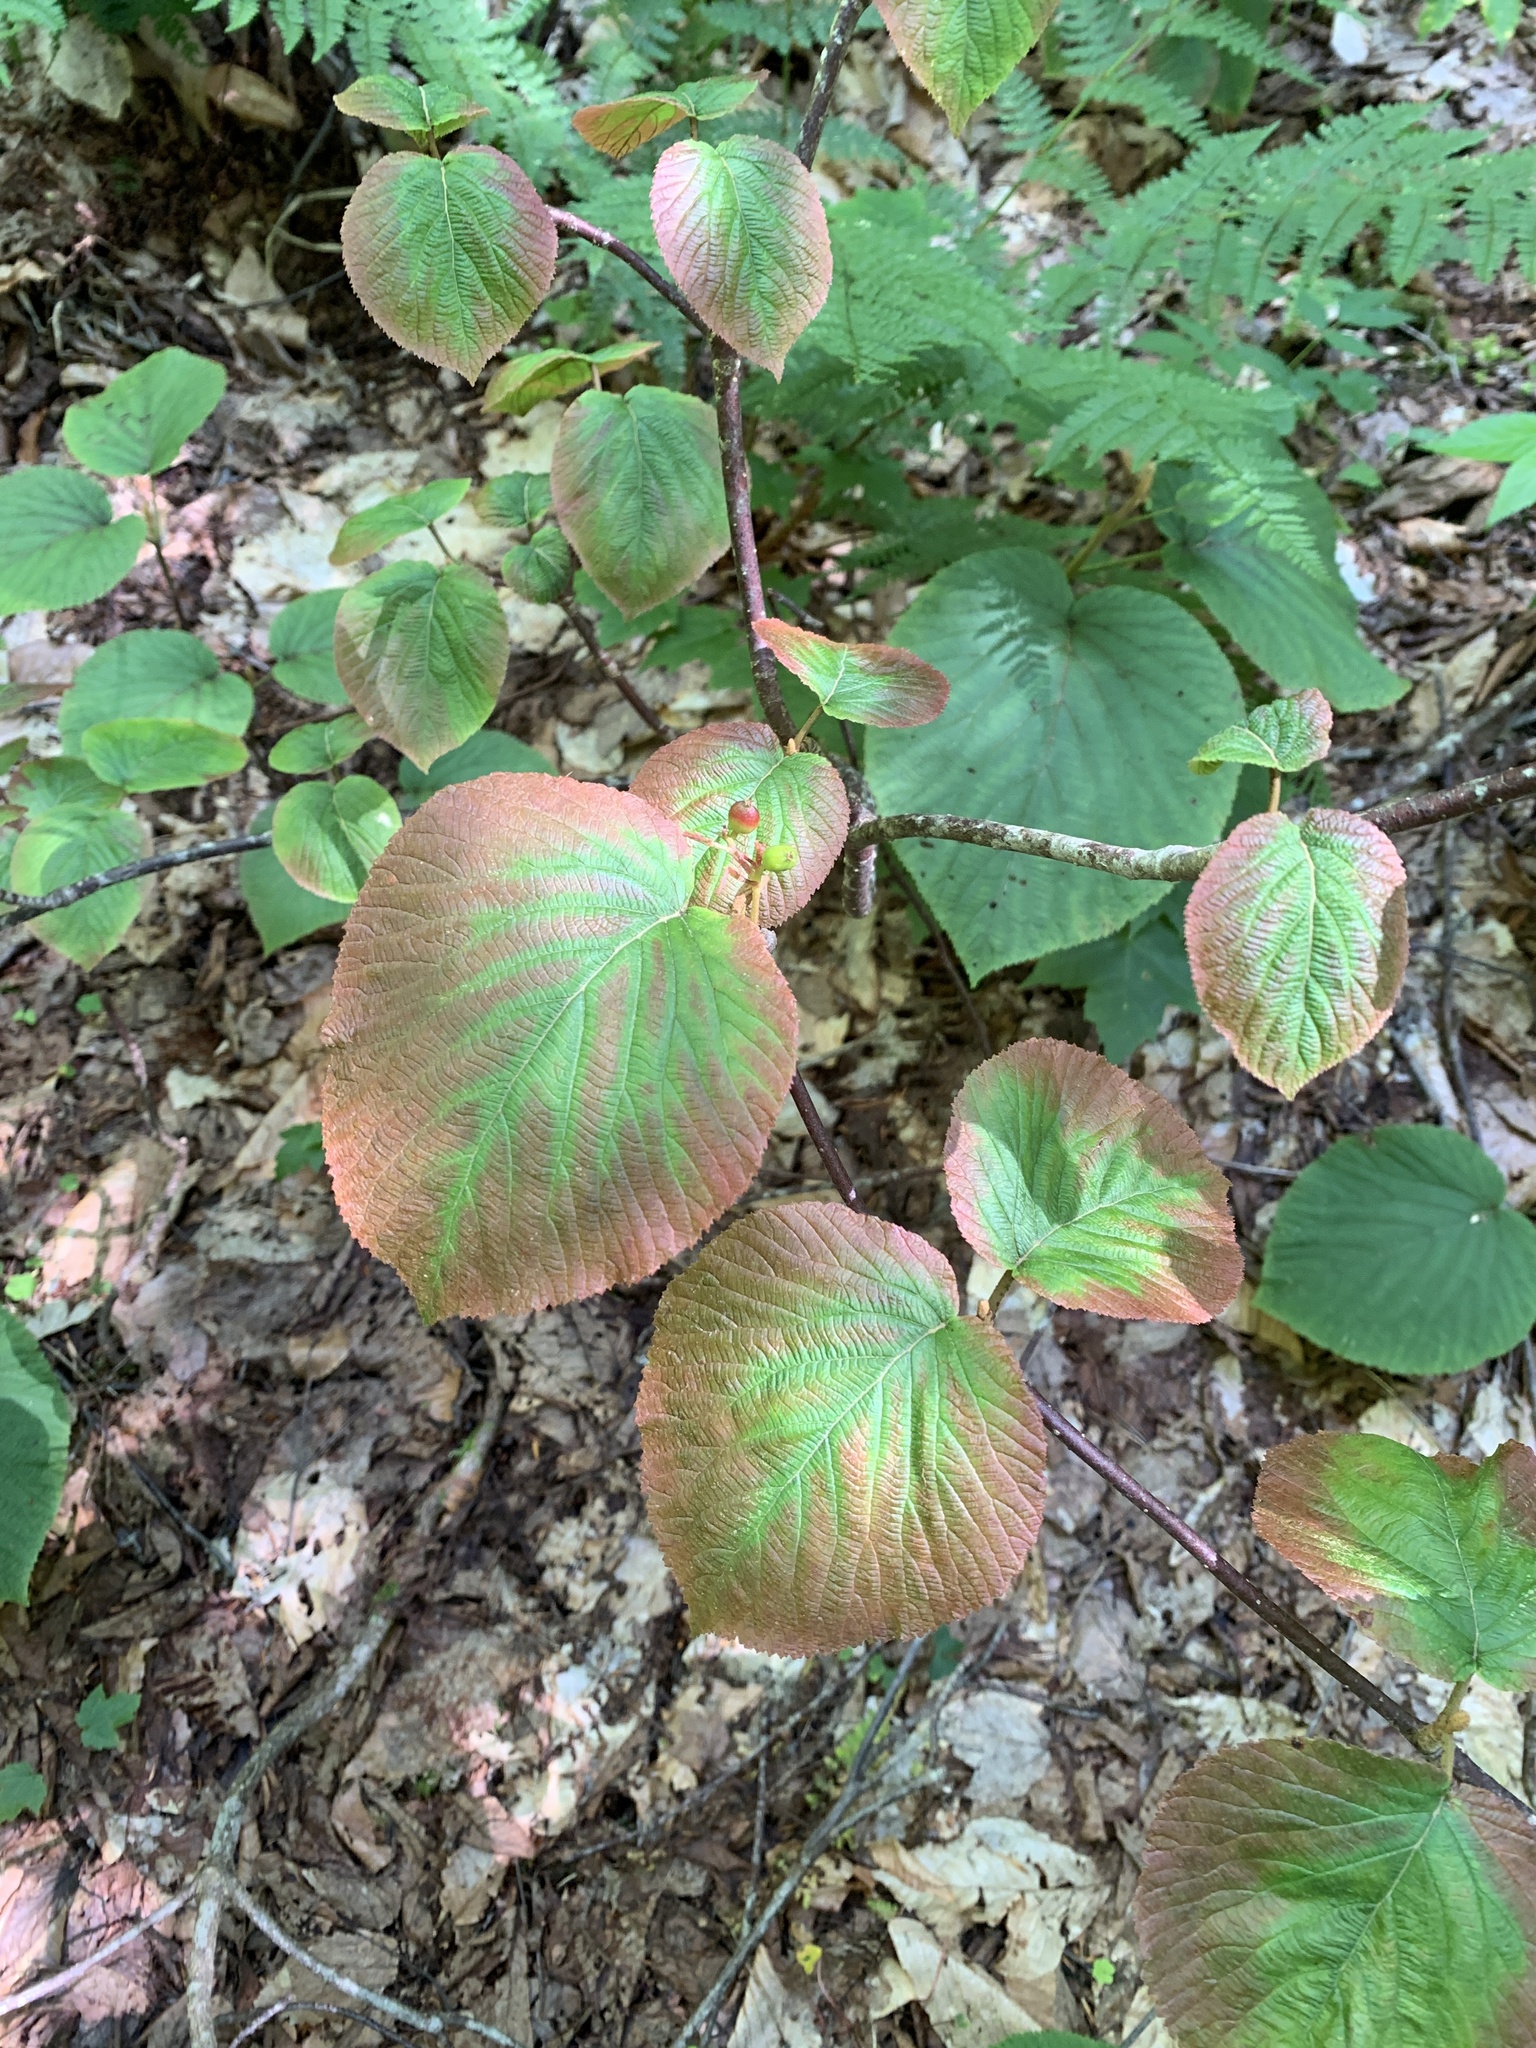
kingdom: Plantae
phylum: Tracheophyta
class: Magnoliopsida
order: Dipsacales
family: Viburnaceae
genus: Viburnum
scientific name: Viburnum lantanoides
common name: Hobblebush
